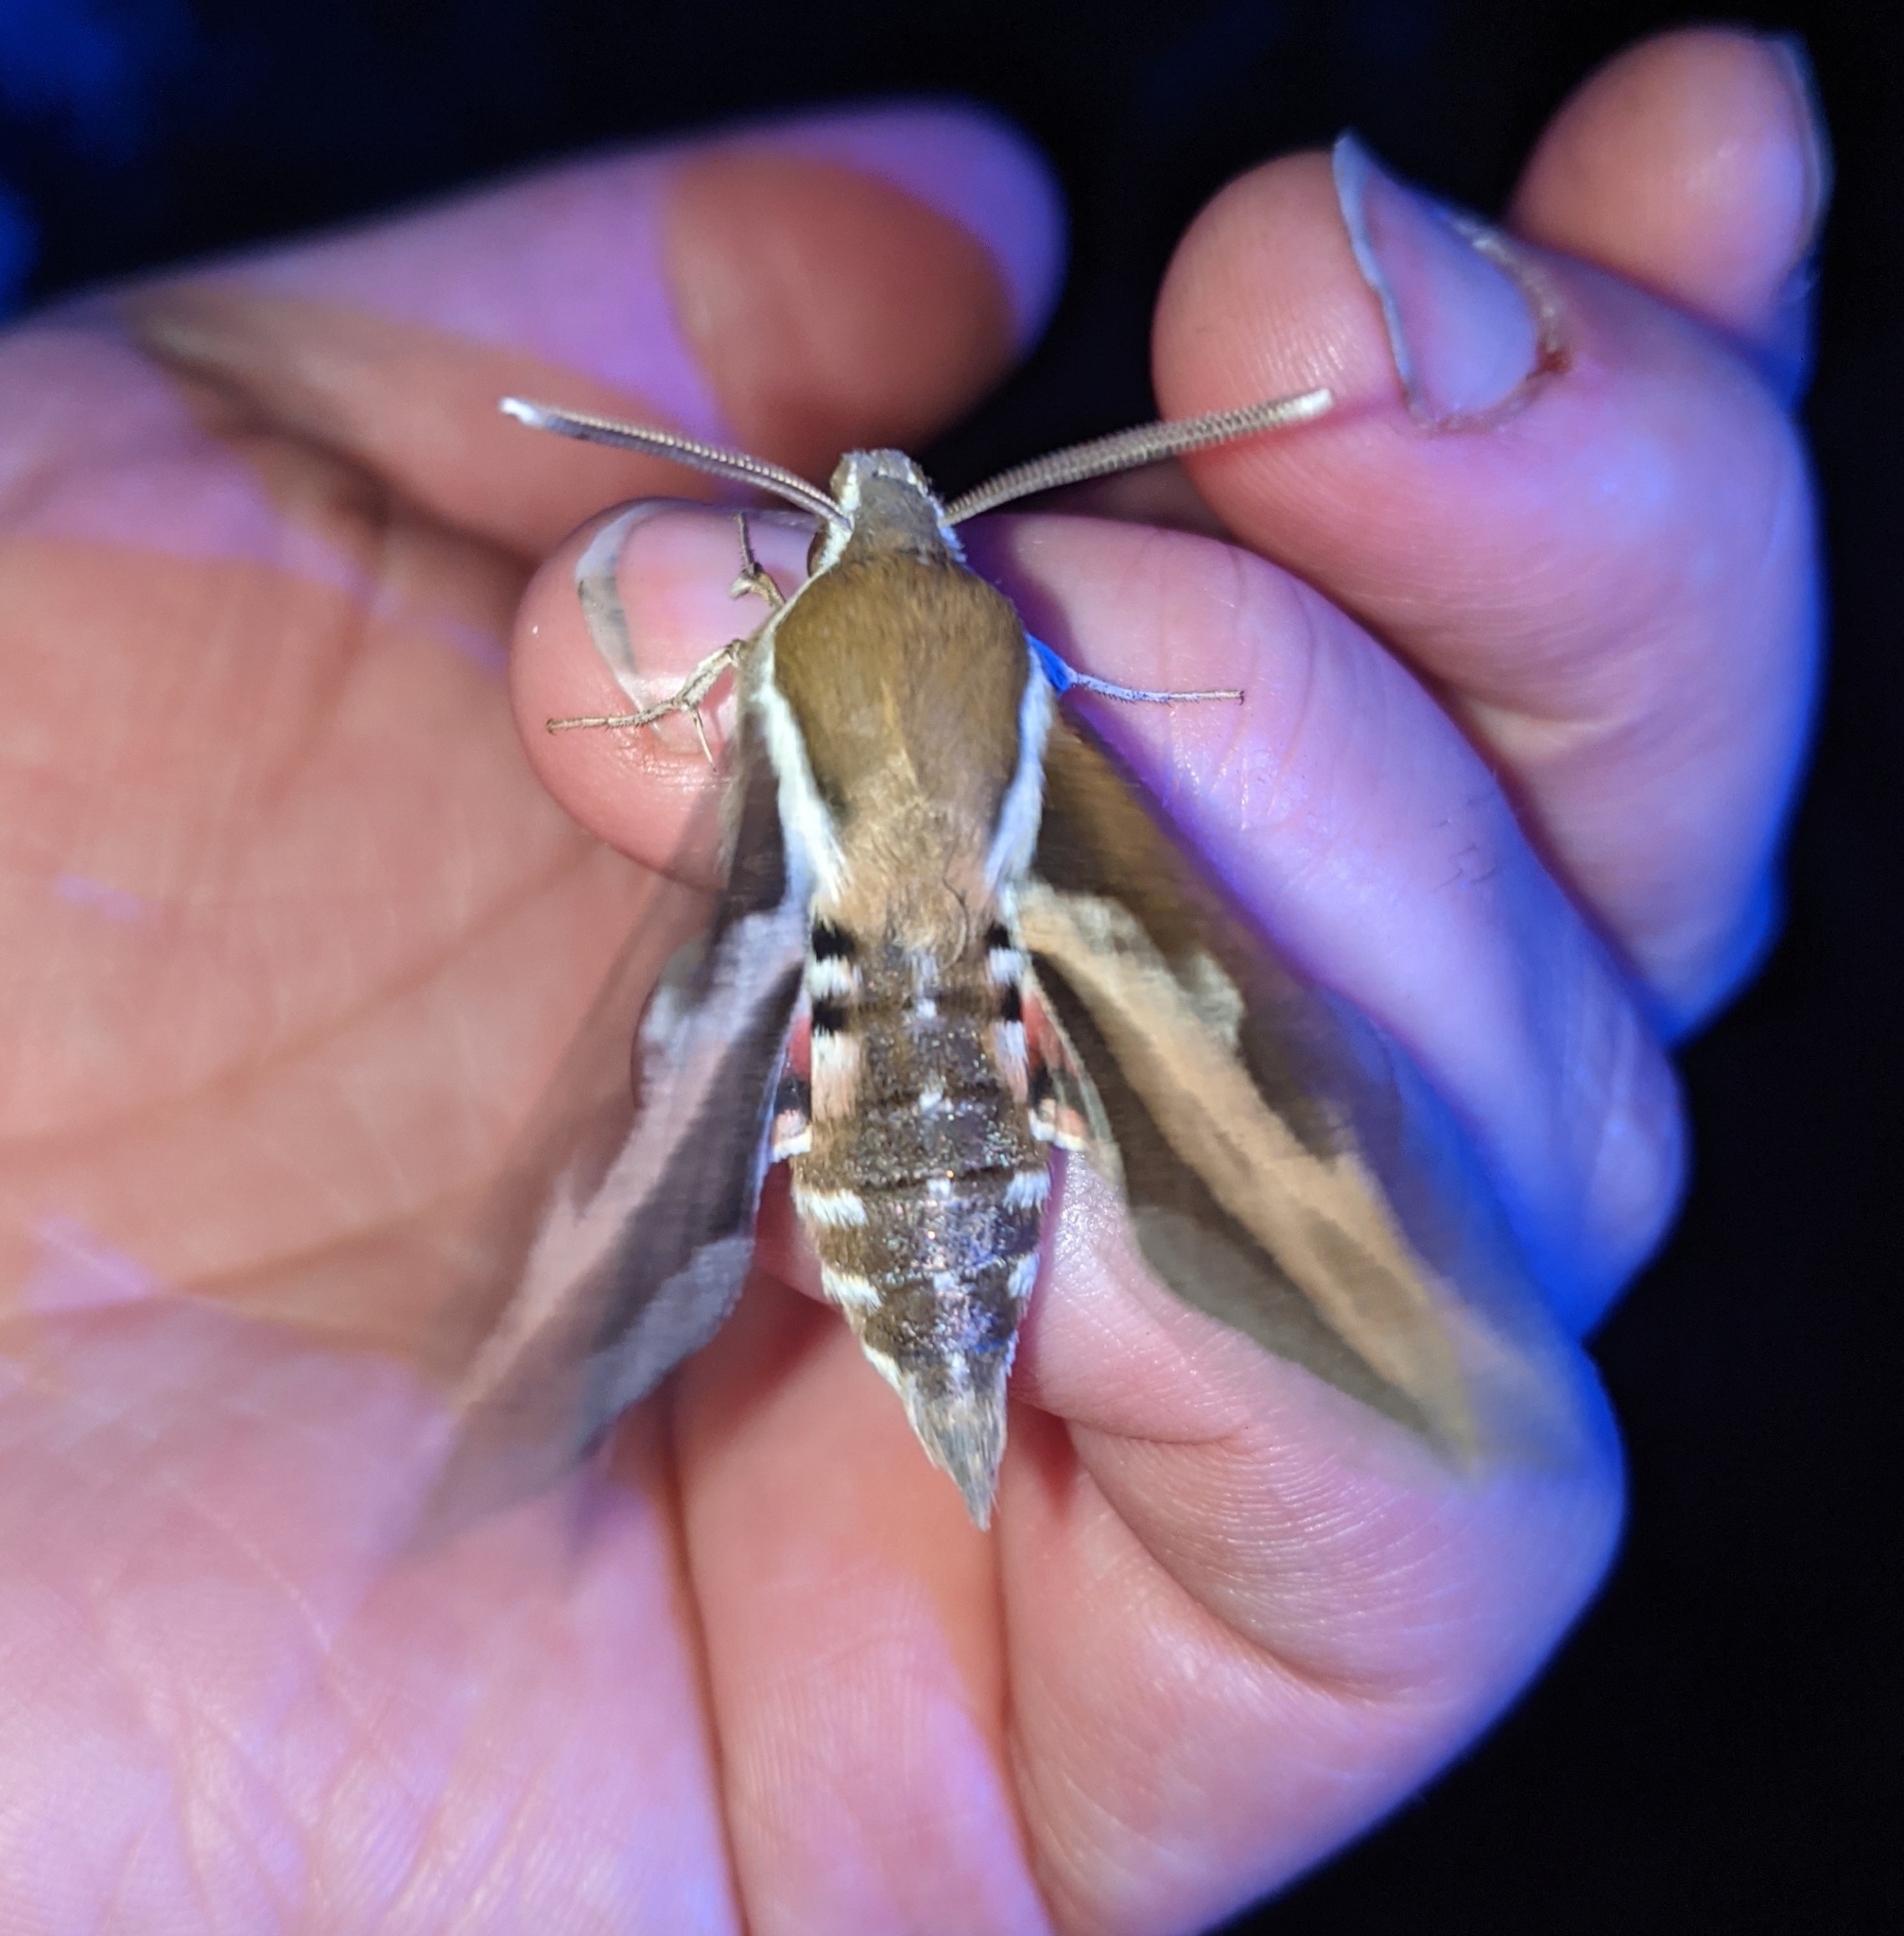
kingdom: Animalia
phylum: Arthropoda
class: Insecta
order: Lepidoptera
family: Sphingidae
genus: Hyles
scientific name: Hyles gallii
